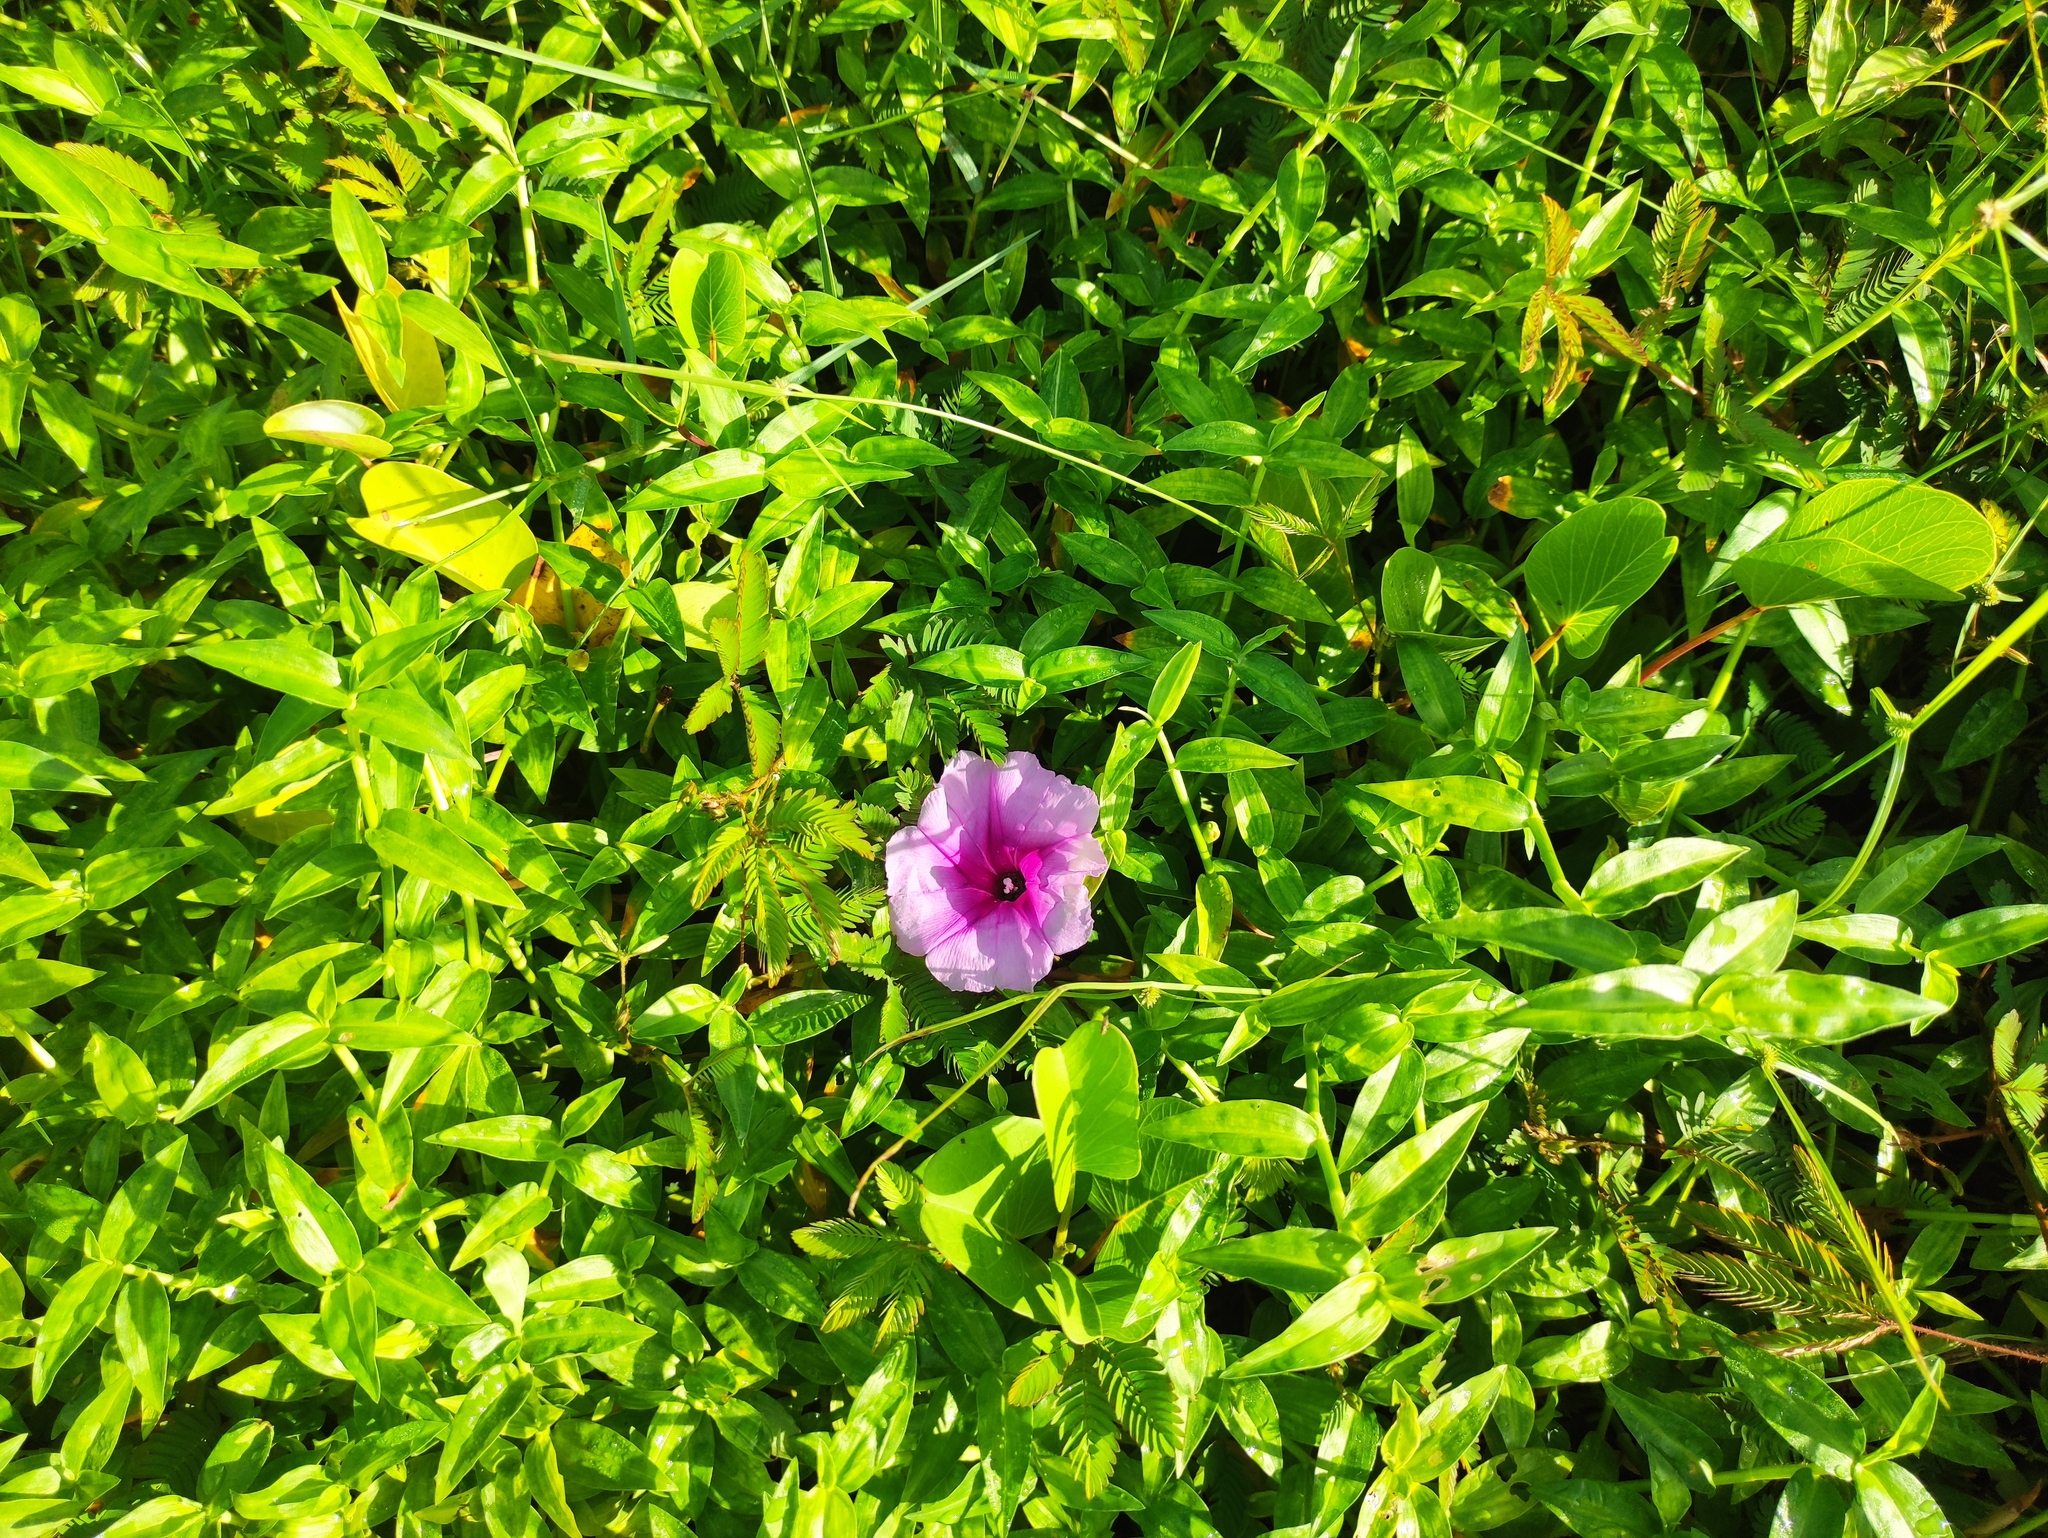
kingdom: Plantae
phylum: Tracheophyta
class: Magnoliopsida
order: Solanales
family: Convolvulaceae
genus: Ipomoea
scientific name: Ipomoea pes-caprae
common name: Beach morning glory
